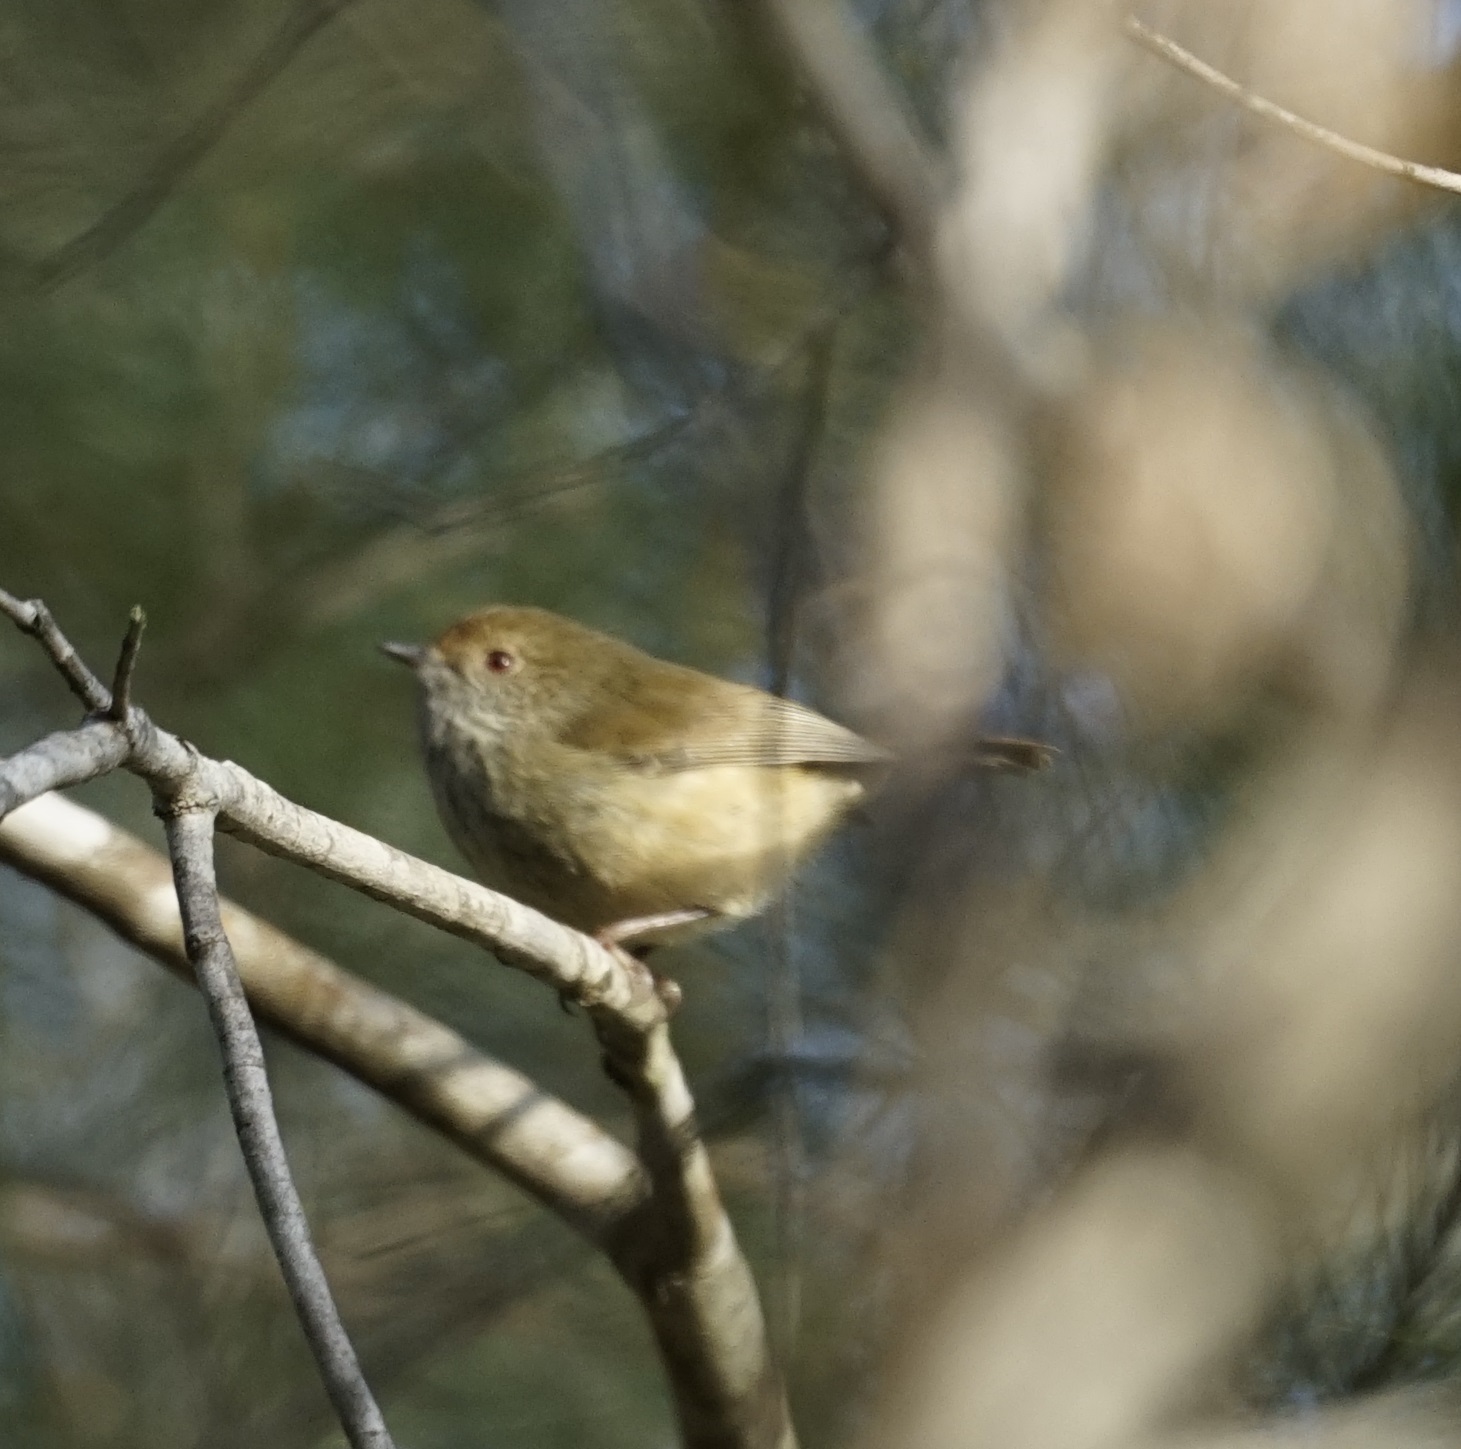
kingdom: Animalia
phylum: Chordata
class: Aves
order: Passeriformes
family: Acanthizidae
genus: Acanthiza
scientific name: Acanthiza pusilla
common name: Brown thornbill
